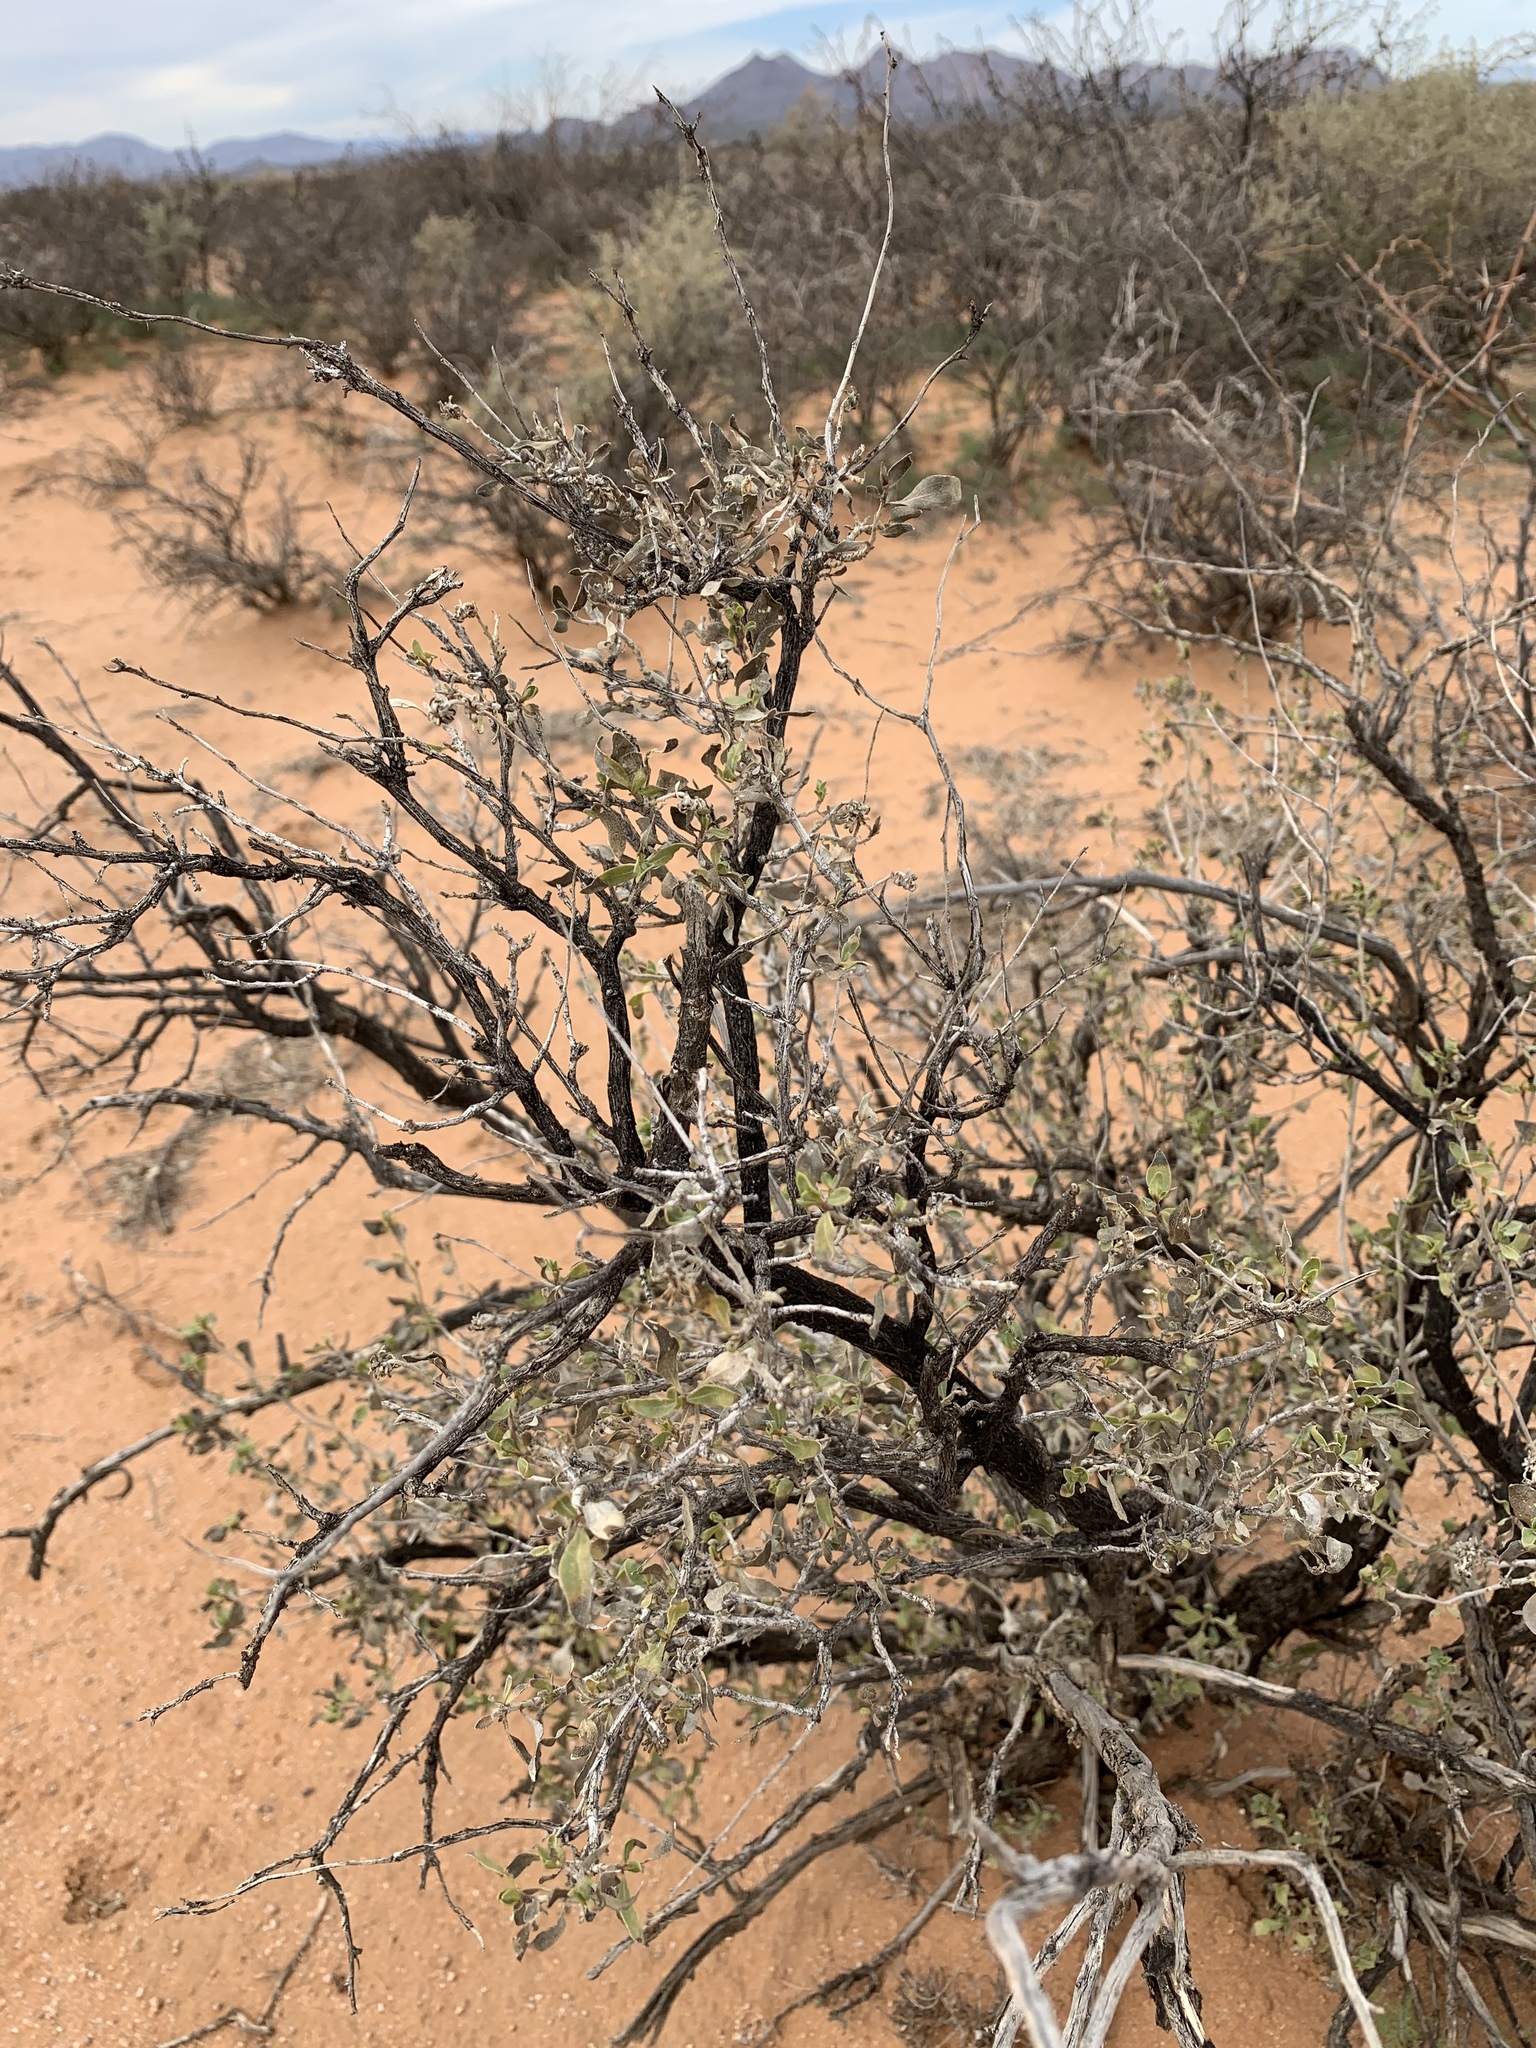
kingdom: Plantae
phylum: Tracheophyta
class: Magnoliopsida
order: Asterales
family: Asteraceae
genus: Flourensia
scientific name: Flourensia cernua
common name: Varnishbush
